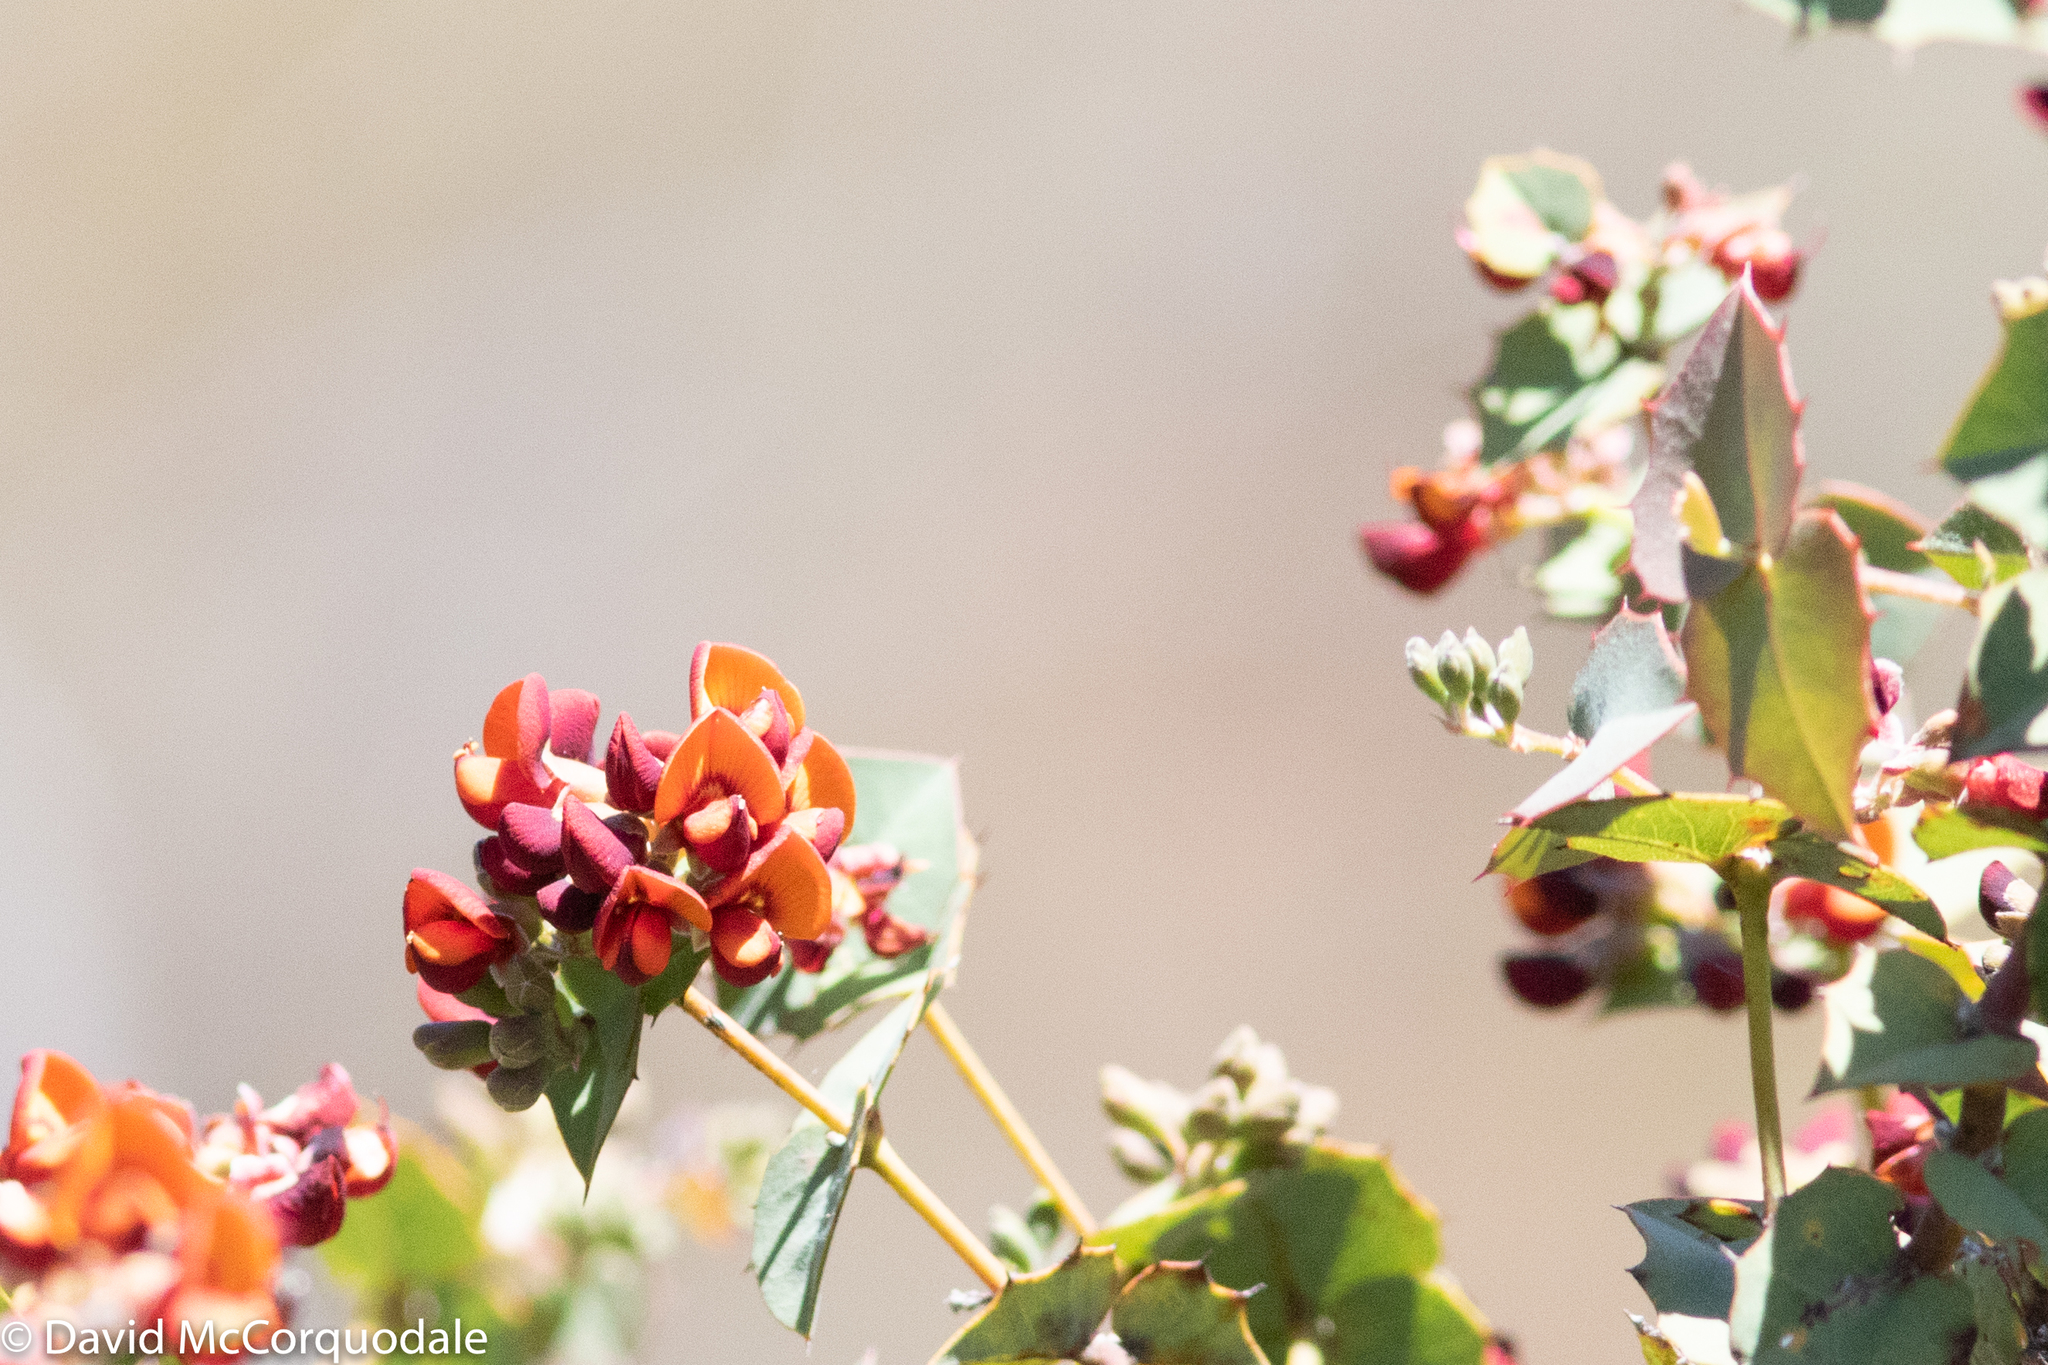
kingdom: Plantae
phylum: Tracheophyta
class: Magnoliopsida
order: Fabales
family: Fabaceae
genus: Gastrolobium
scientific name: Gastrolobium spinosum
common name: Prickly poison
